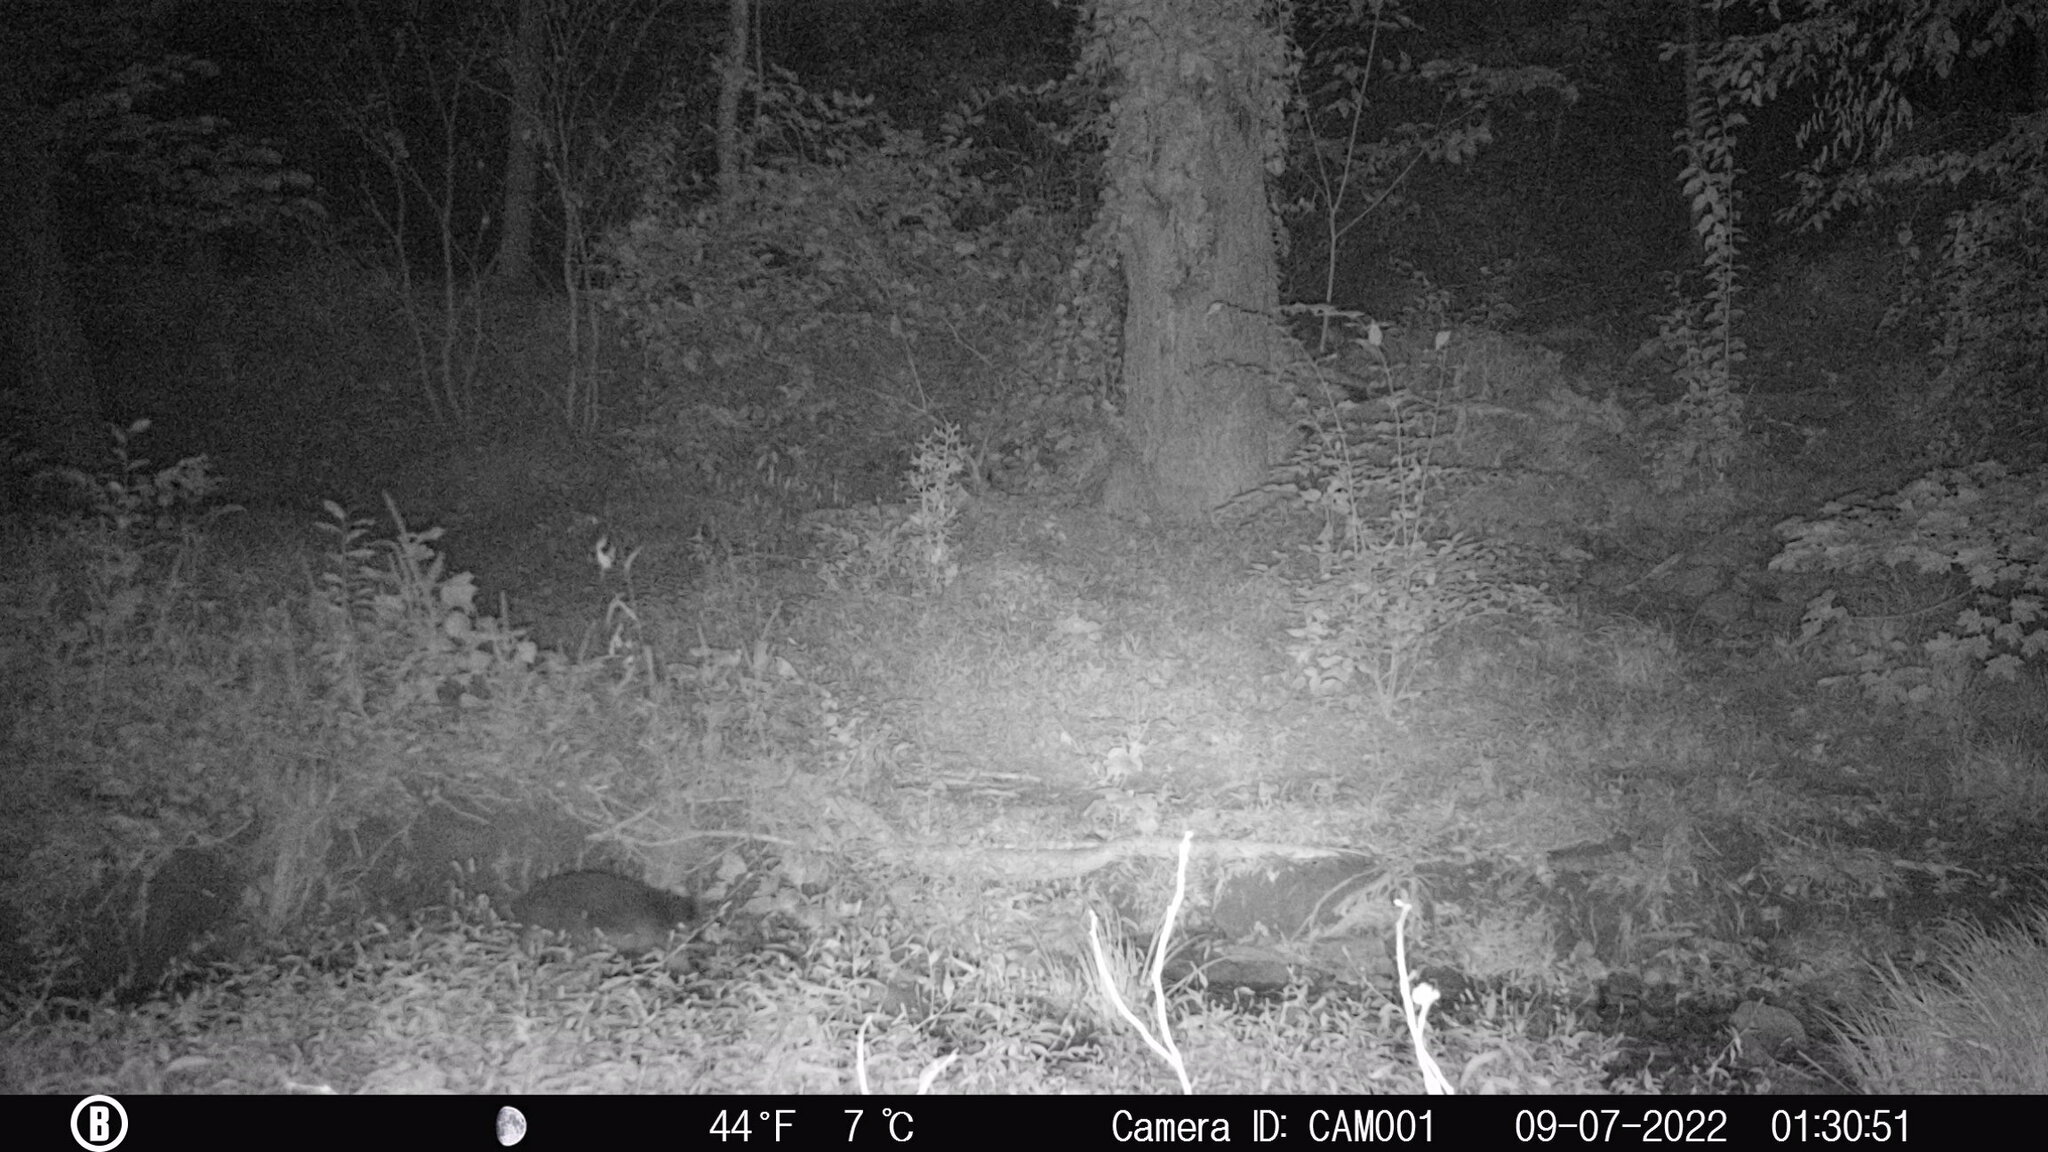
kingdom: Animalia
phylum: Chordata
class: Mammalia
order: Carnivora
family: Procyonidae
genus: Procyon
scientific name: Procyon lotor
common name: Raccoon
